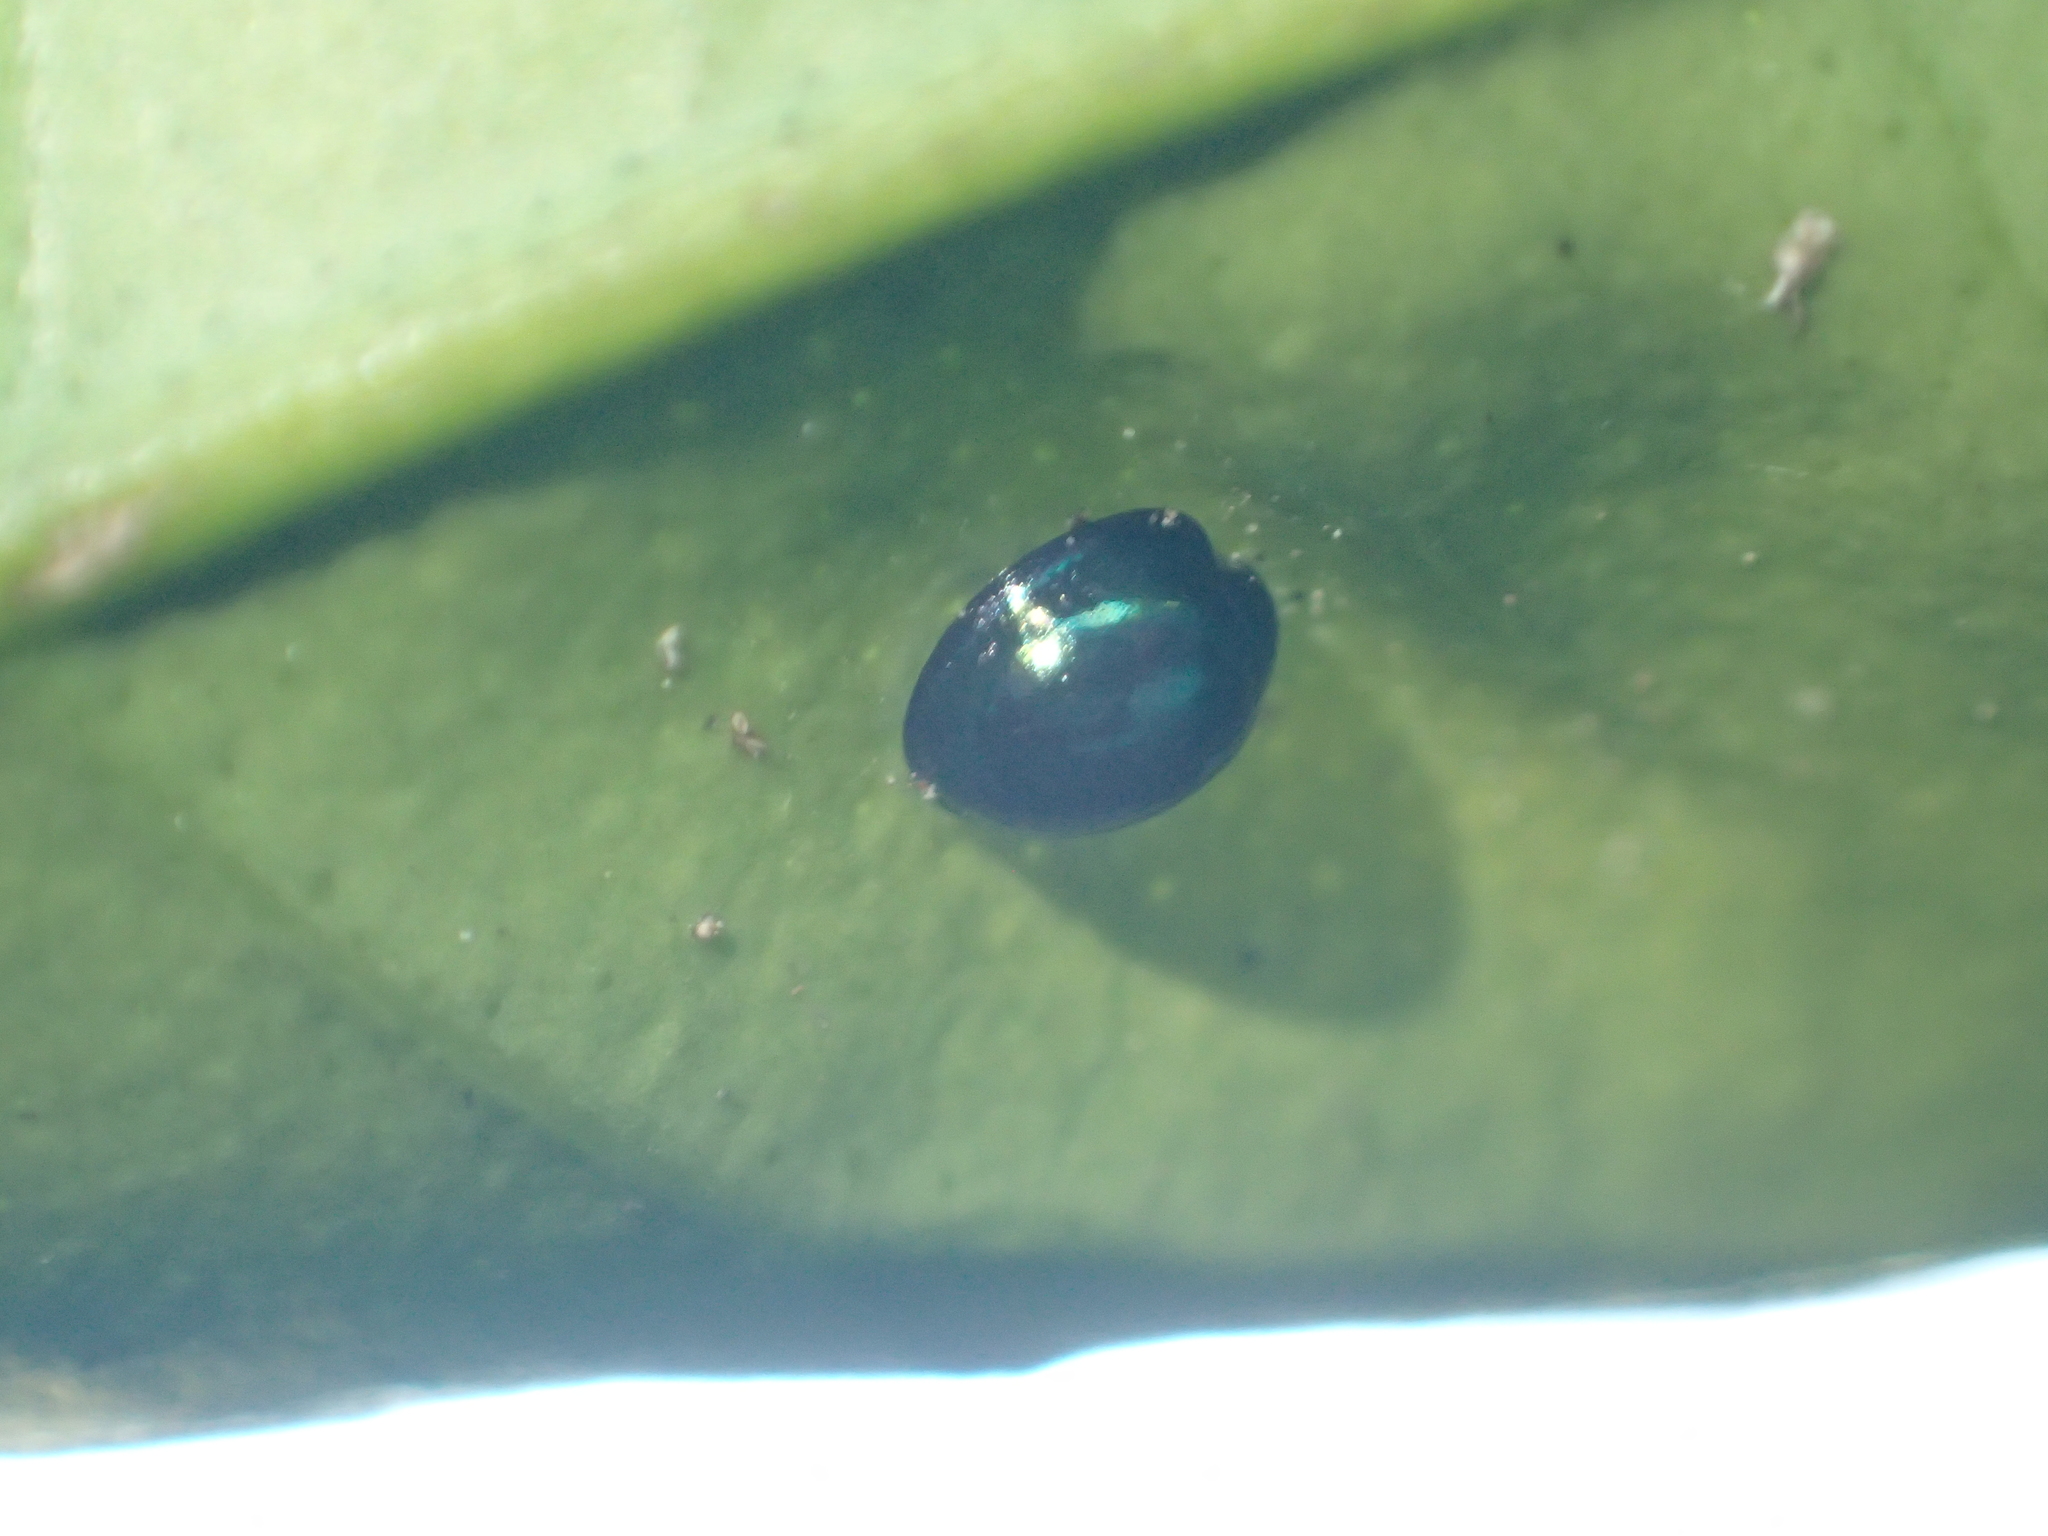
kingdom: Animalia
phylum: Arthropoda
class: Insecta
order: Coleoptera
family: Coccinellidae
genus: Halmus
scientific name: Halmus chalybeus
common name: Steel blue ladybird beetle
